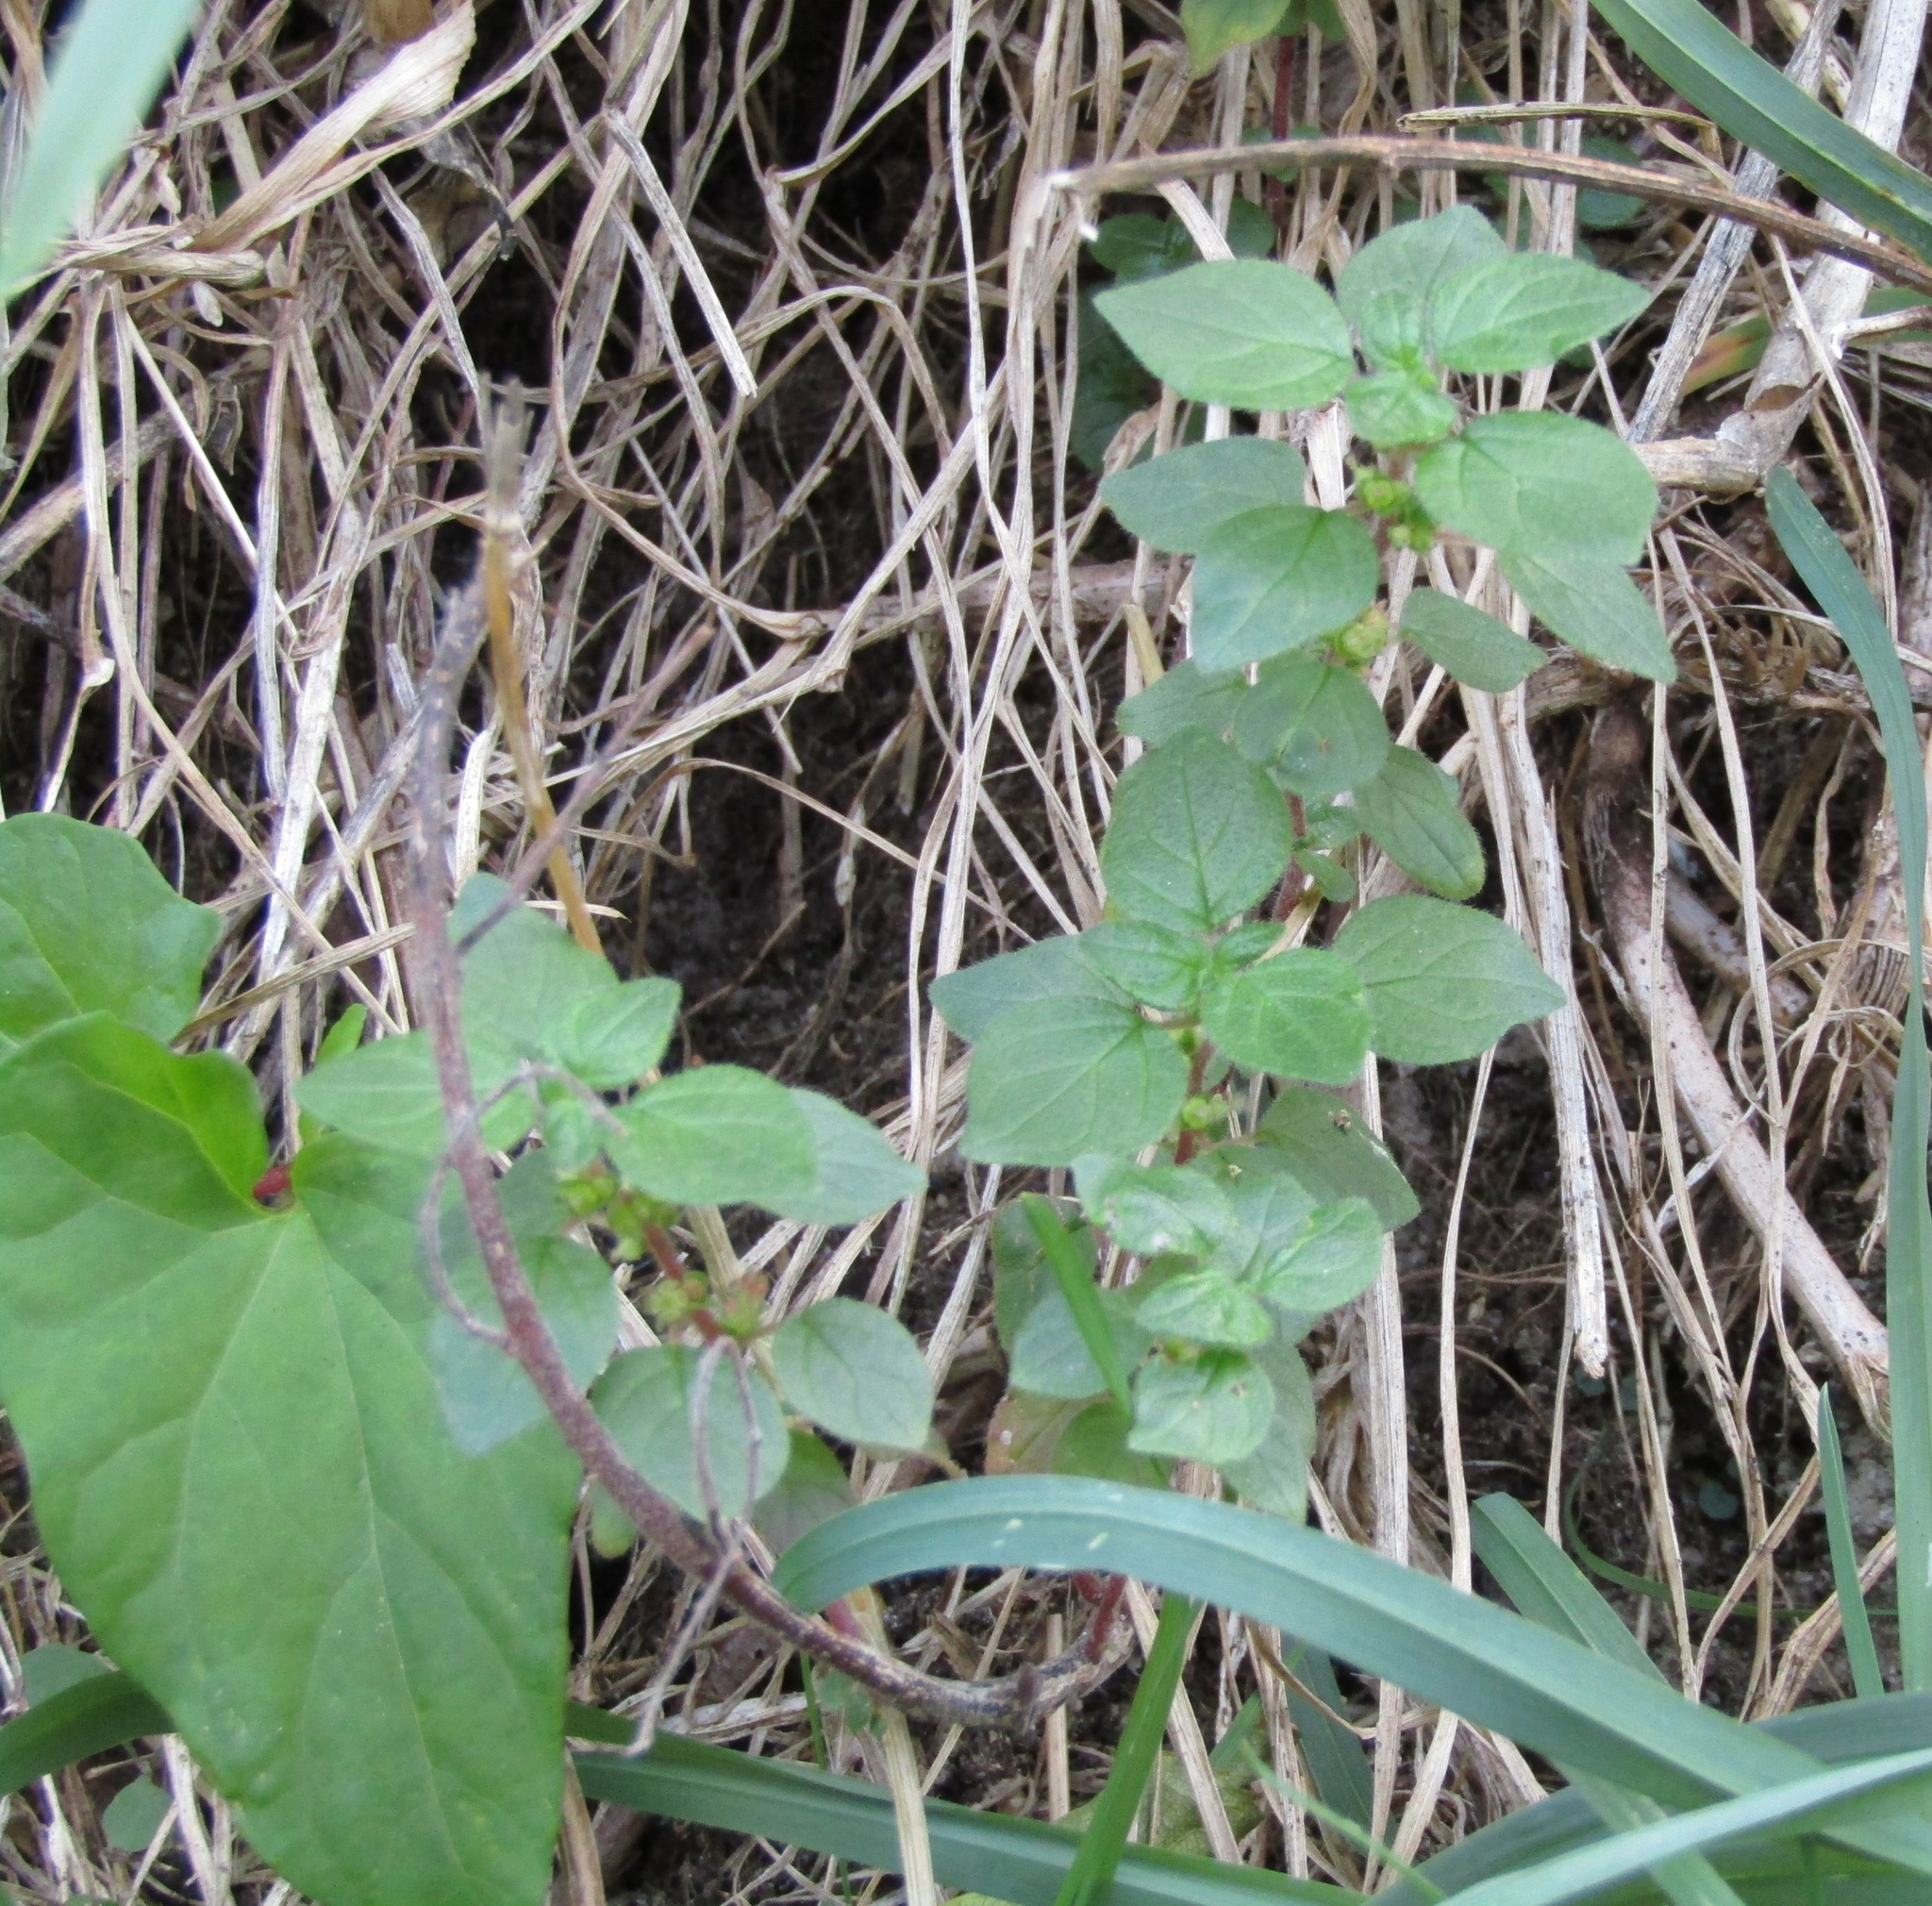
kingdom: Plantae
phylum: Tracheophyta
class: Magnoliopsida
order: Rosales
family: Urticaceae
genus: Parietaria
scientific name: Parietaria judaica
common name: Pellitory-of-the-wall
